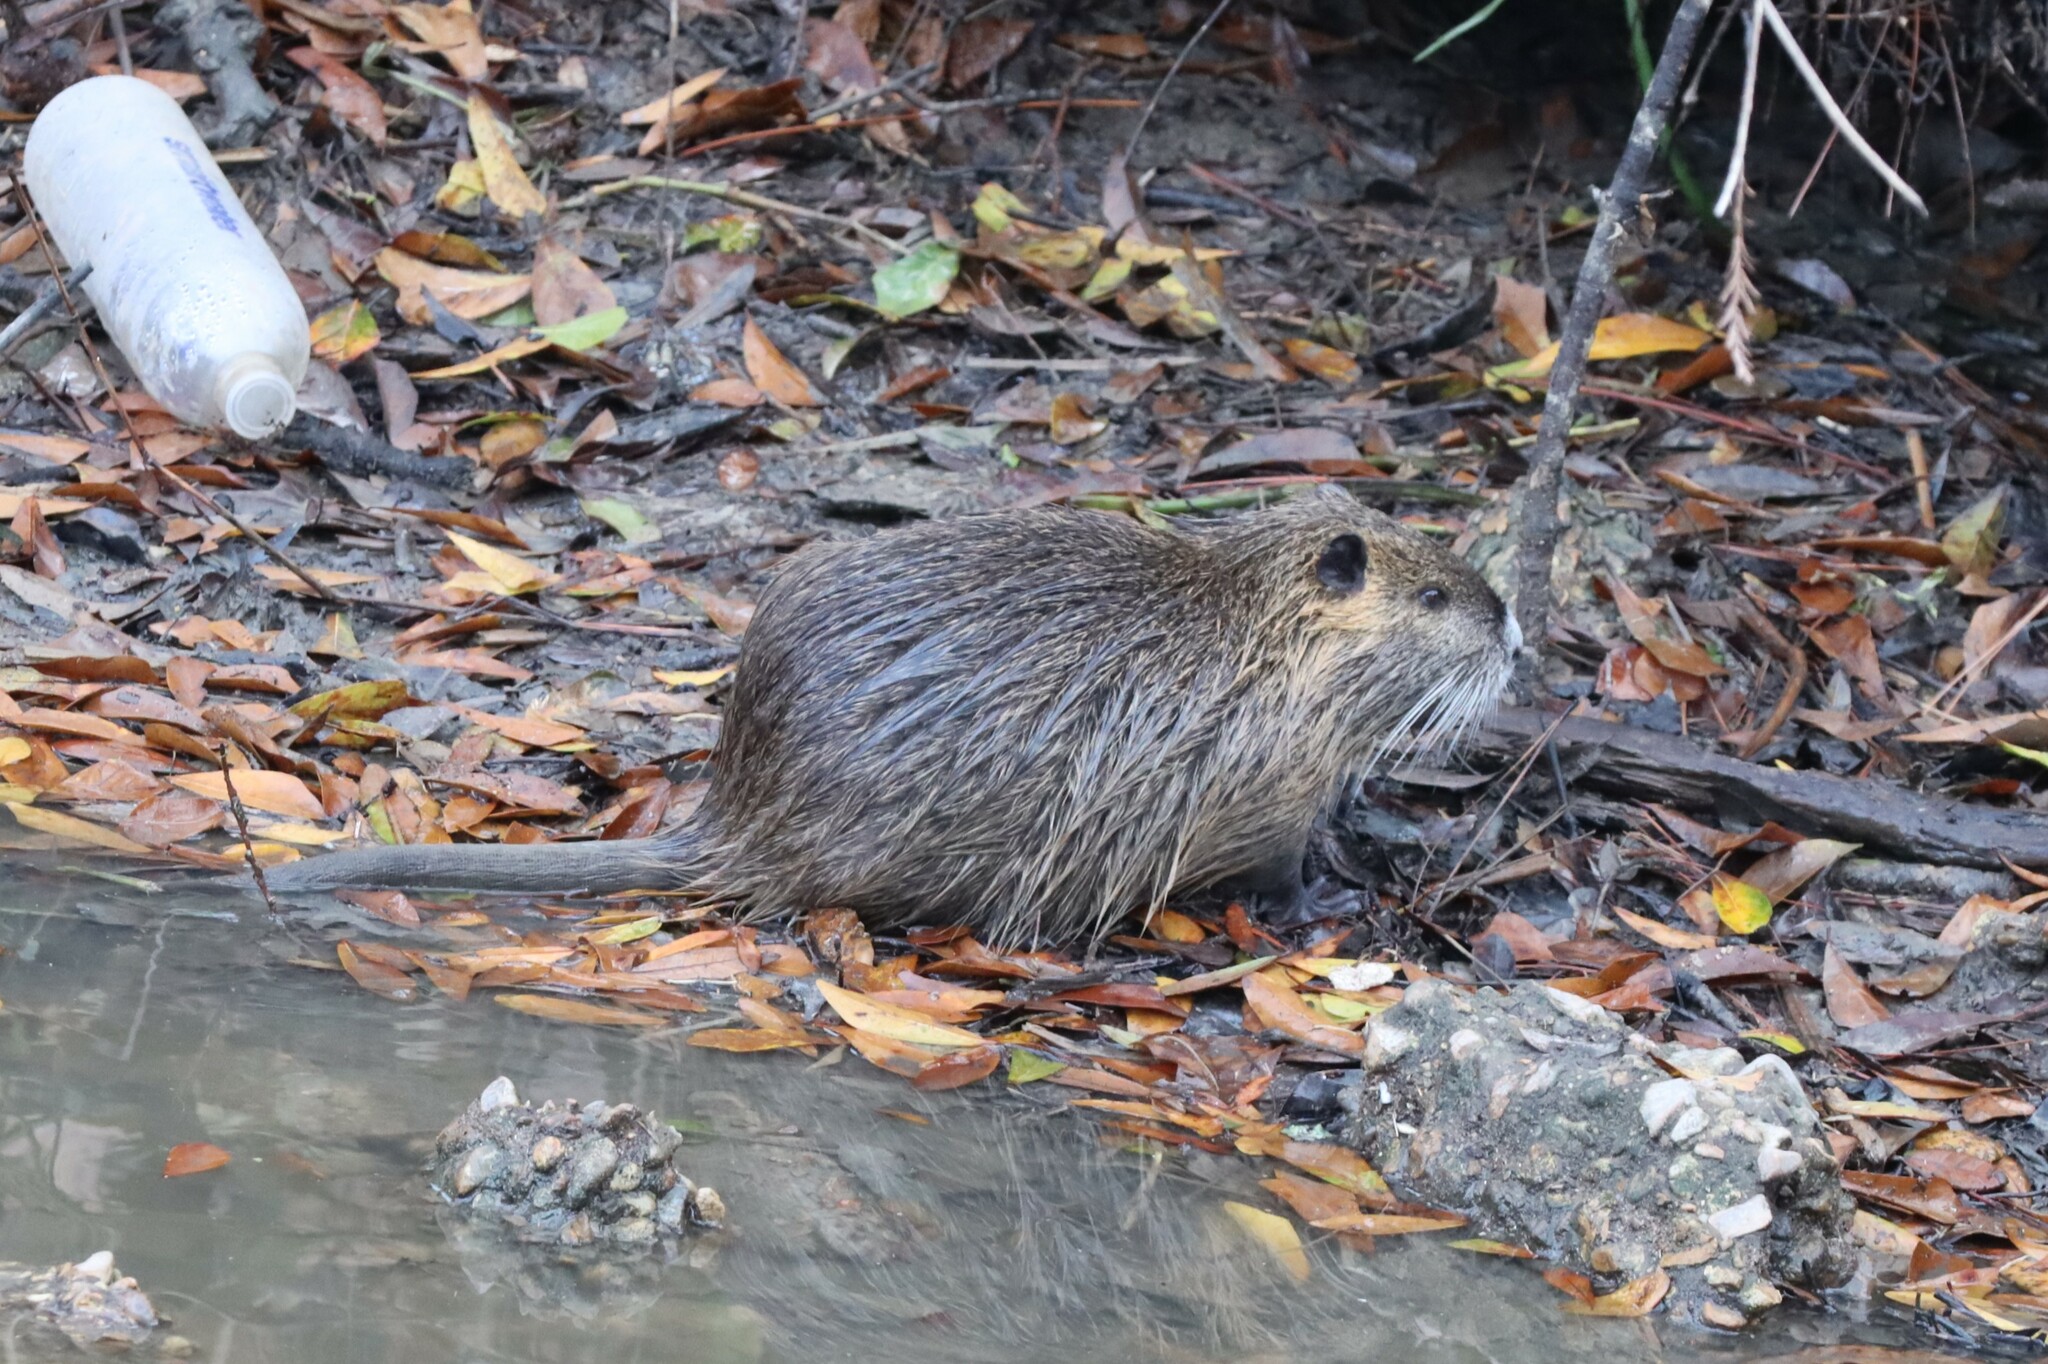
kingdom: Animalia
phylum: Chordata
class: Mammalia
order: Rodentia
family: Myocastoridae
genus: Myocastor
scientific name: Myocastor coypus
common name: Coypu
